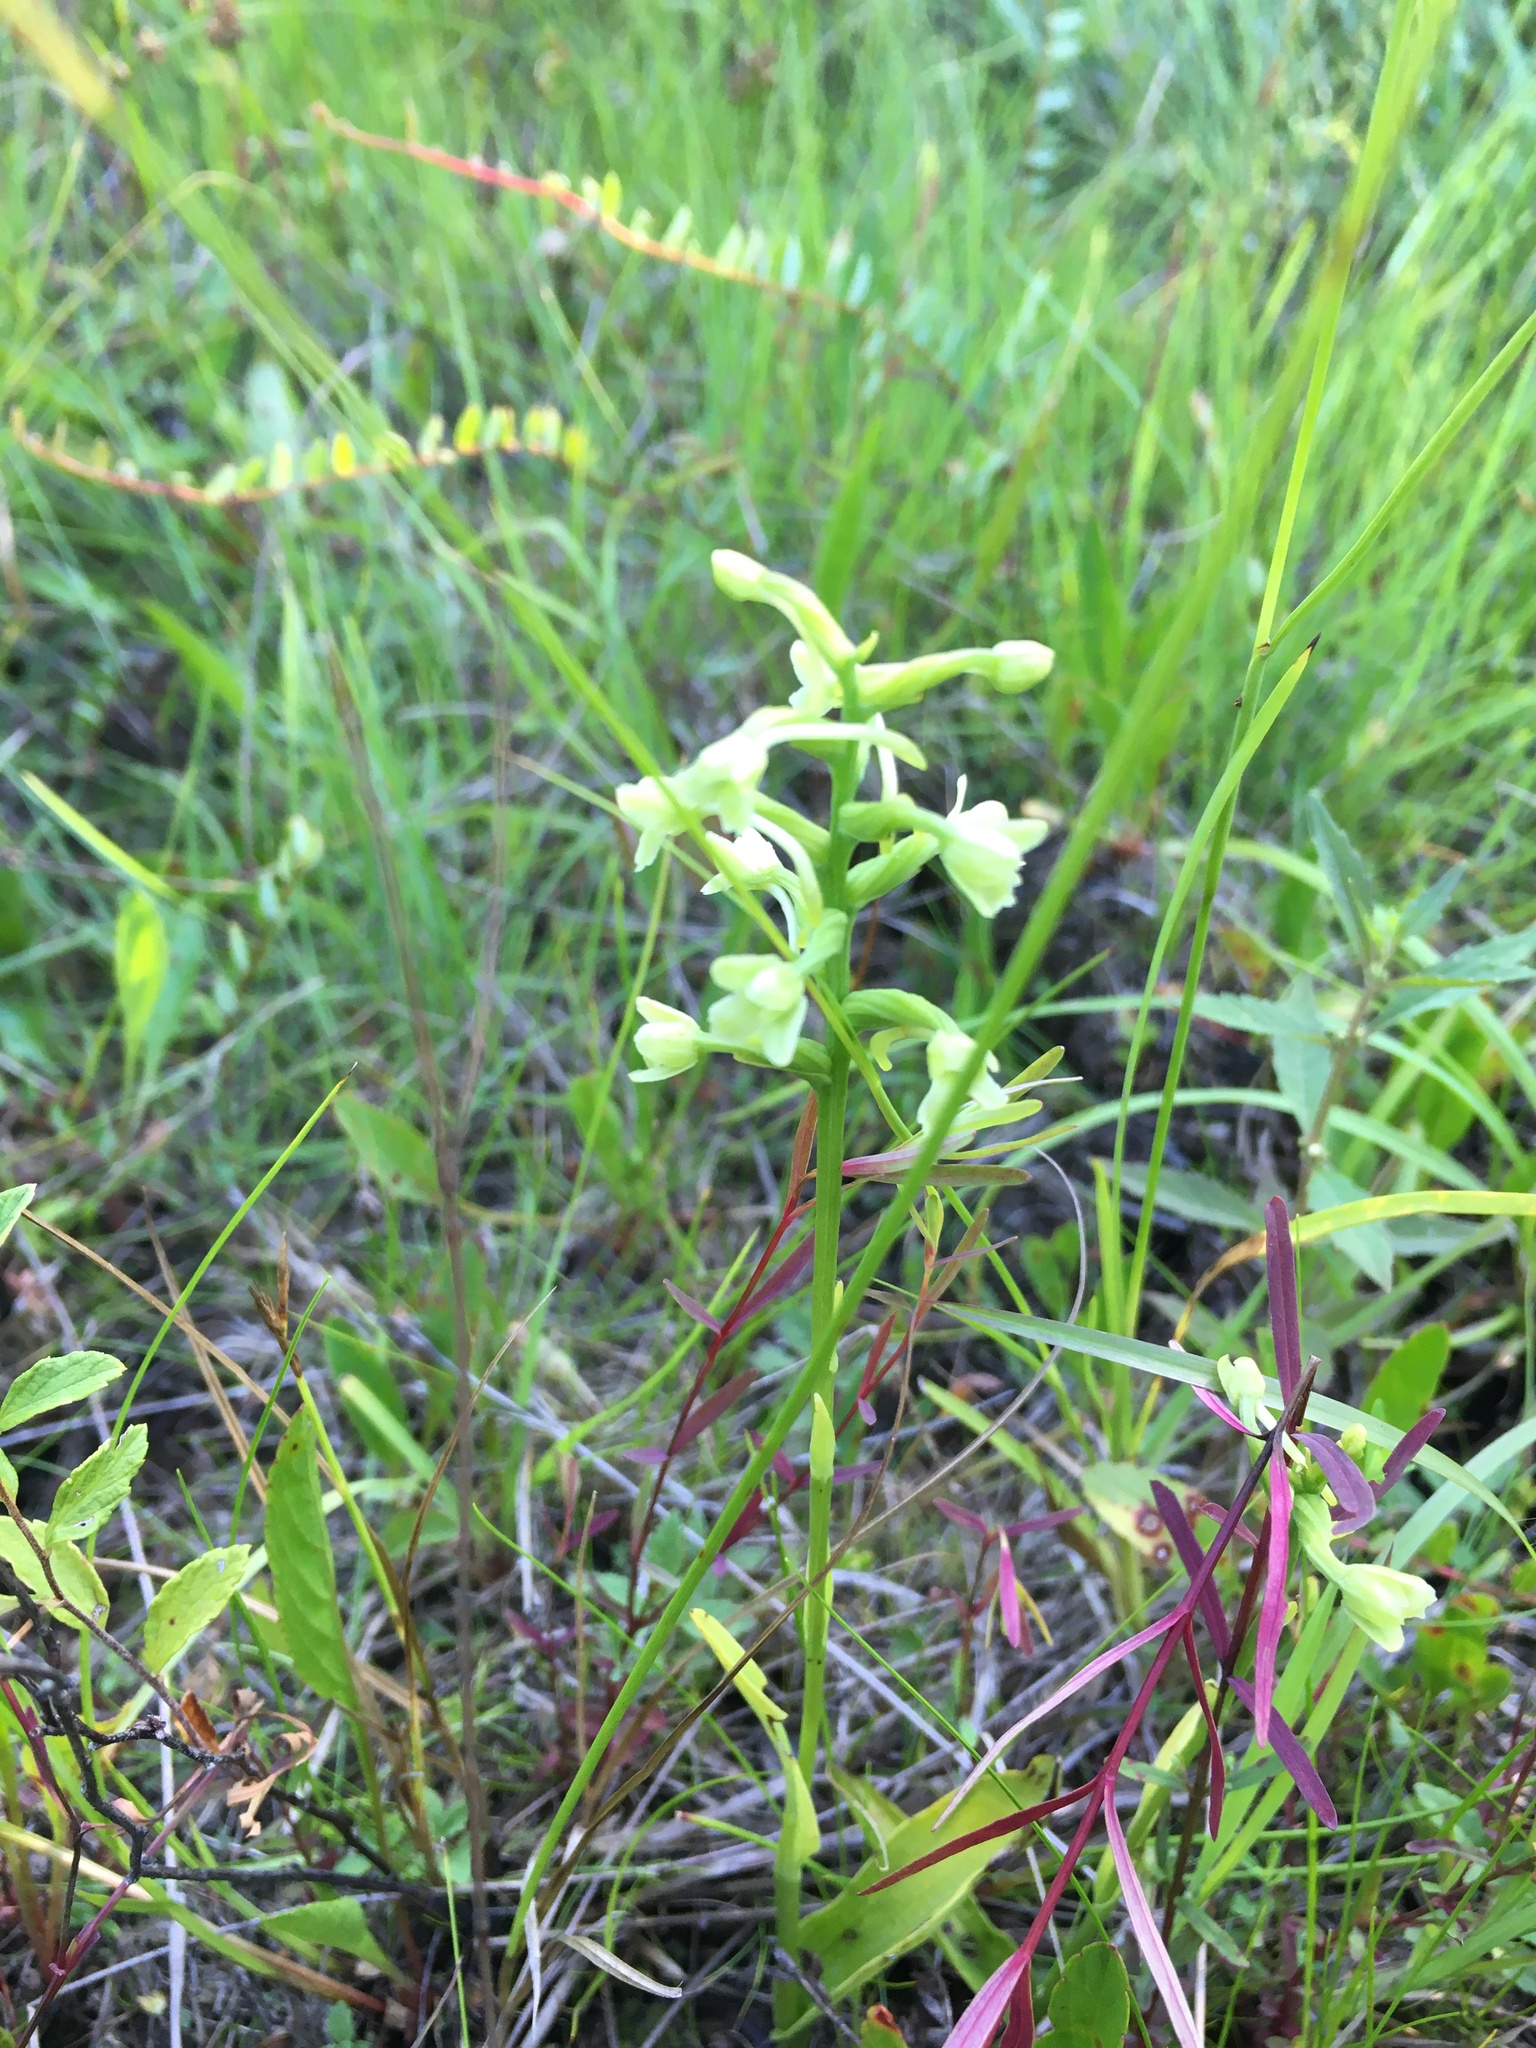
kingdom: Plantae
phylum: Tracheophyta
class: Liliopsida
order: Asparagales
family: Orchidaceae
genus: Platanthera
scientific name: Platanthera clavellata
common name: Club-spur orchid
